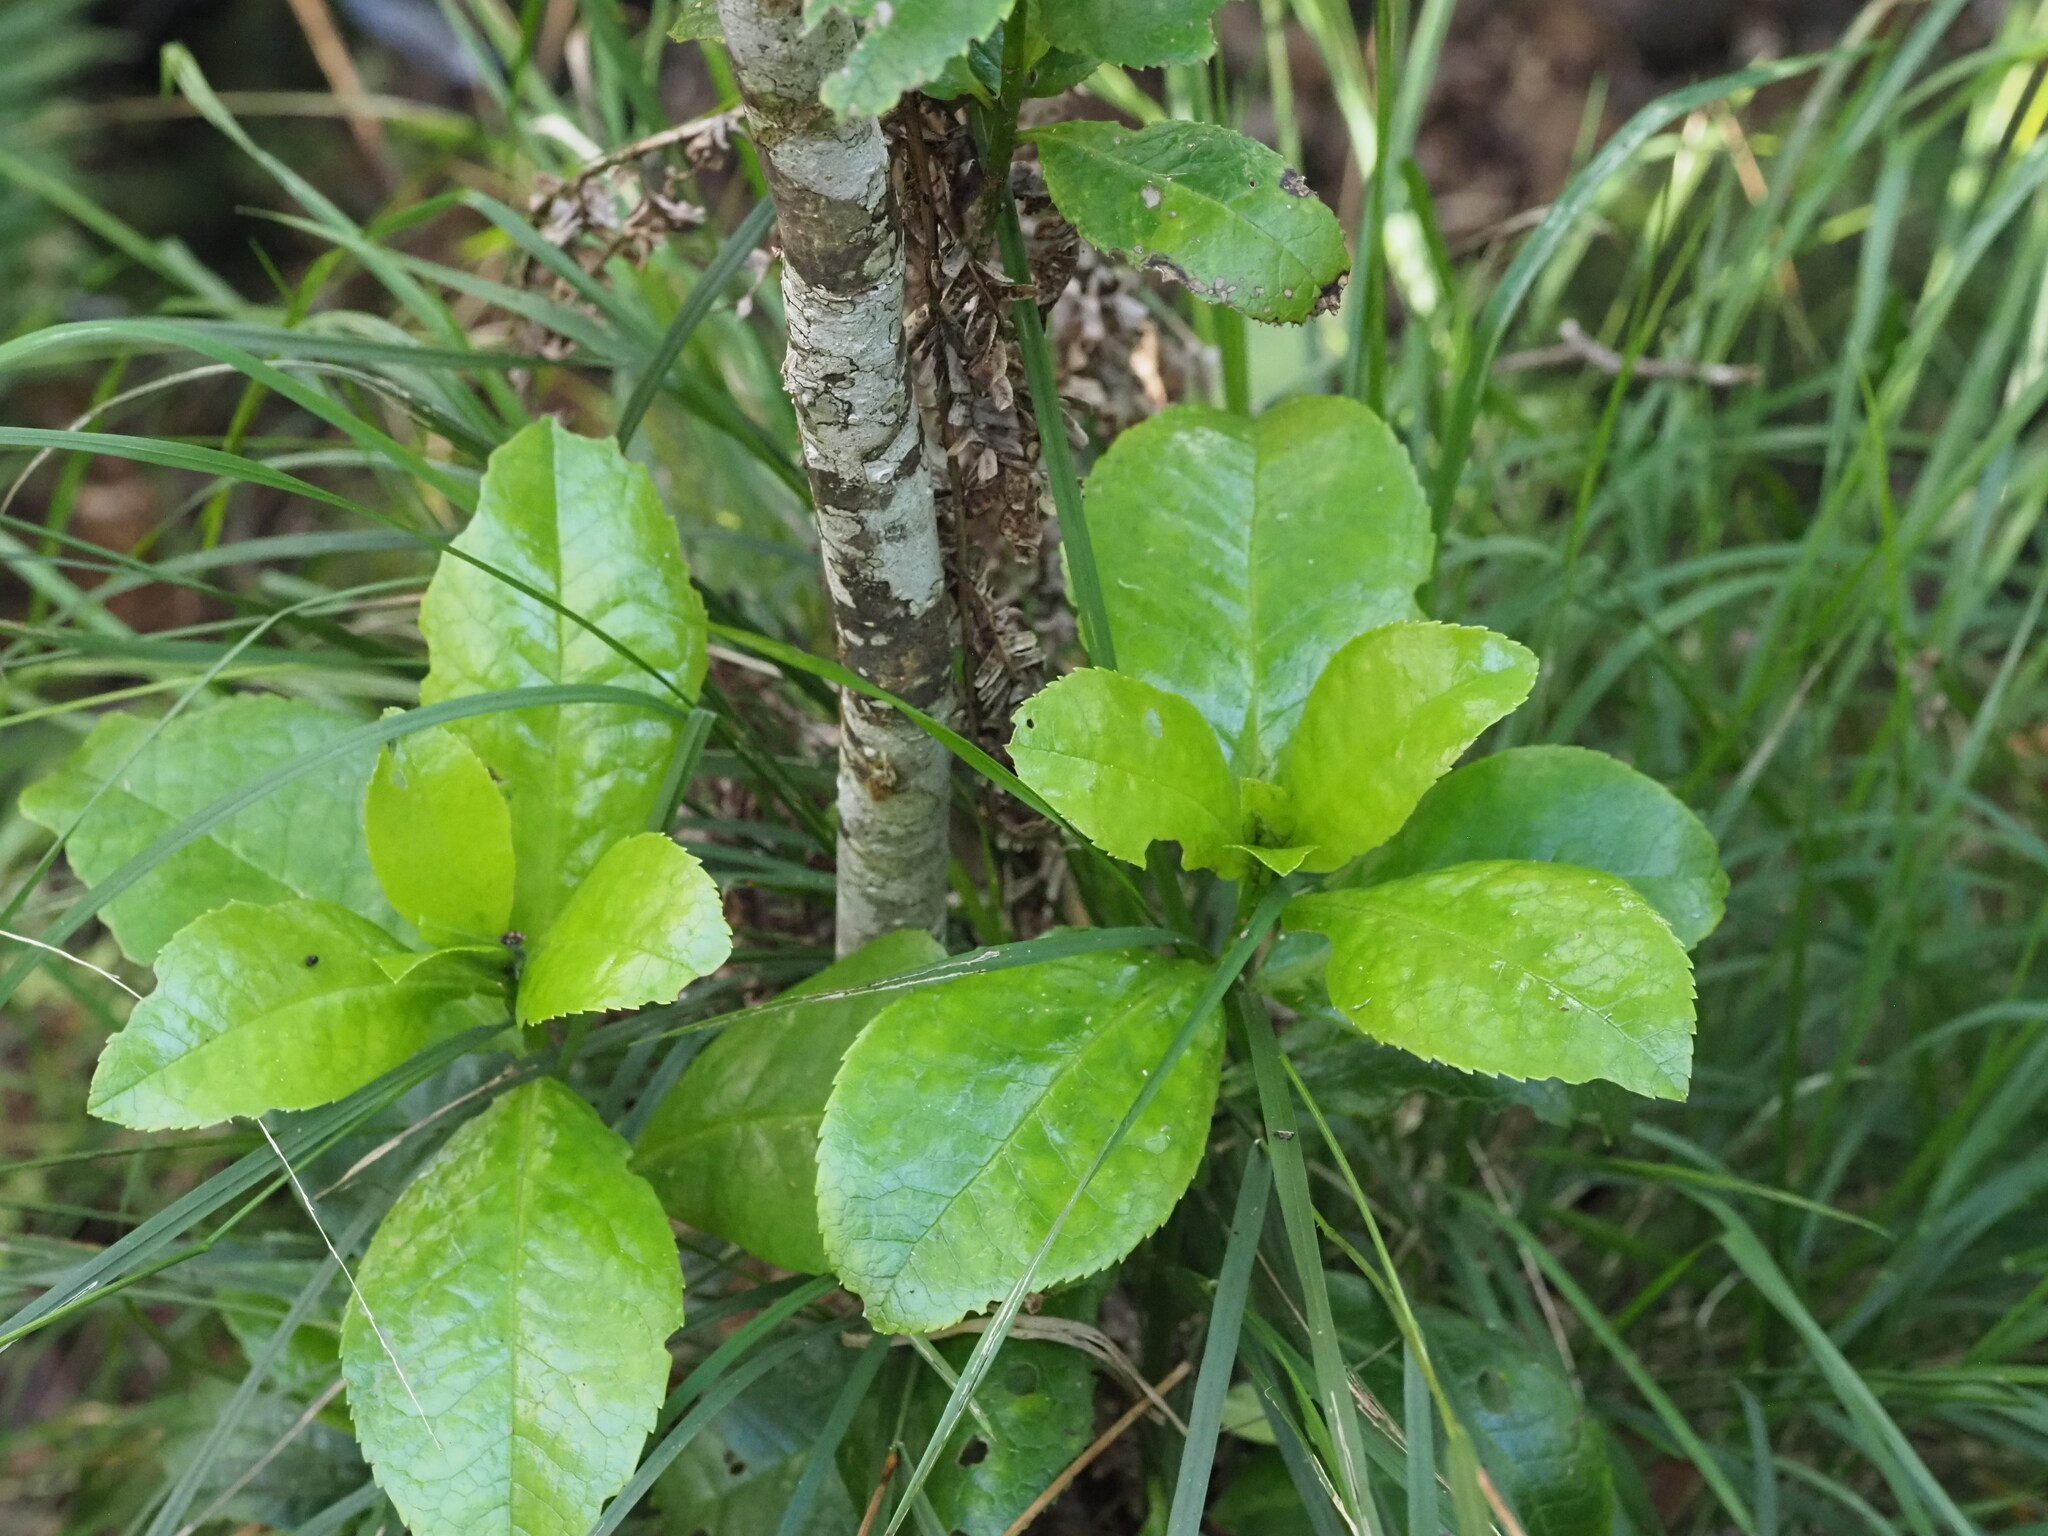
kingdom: Plantae
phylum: Tracheophyta
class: Magnoliopsida
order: Aquifoliales
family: Aquifoliaceae
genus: Ilex
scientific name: Ilex anomala
